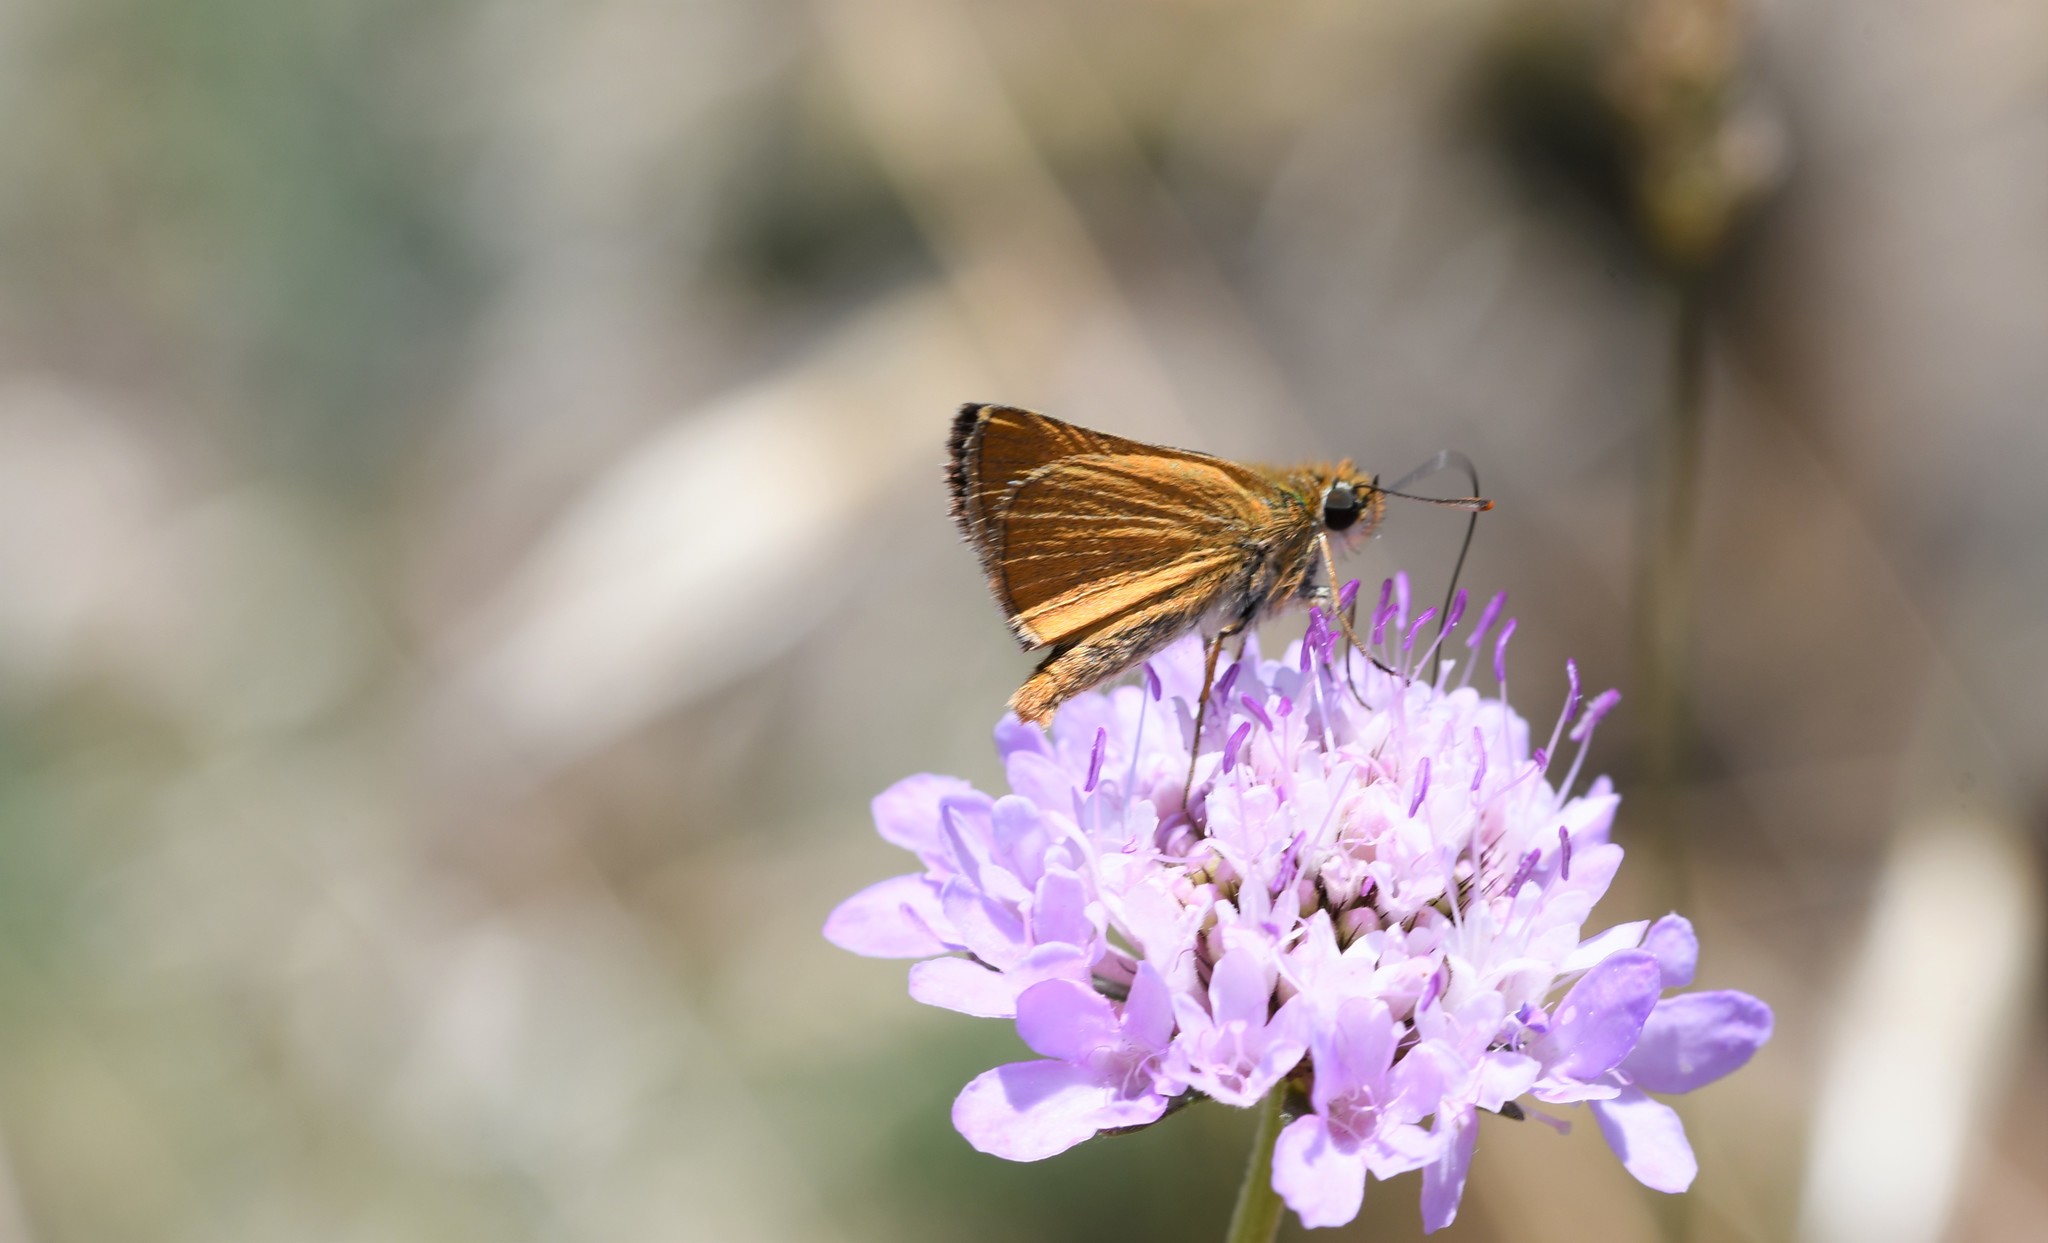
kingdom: Animalia
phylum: Arthropoda
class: Insecta
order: Lepidoptera
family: Hesperiidae
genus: Thymelicus
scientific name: Thymelicus acteon
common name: Lulworth skipper
